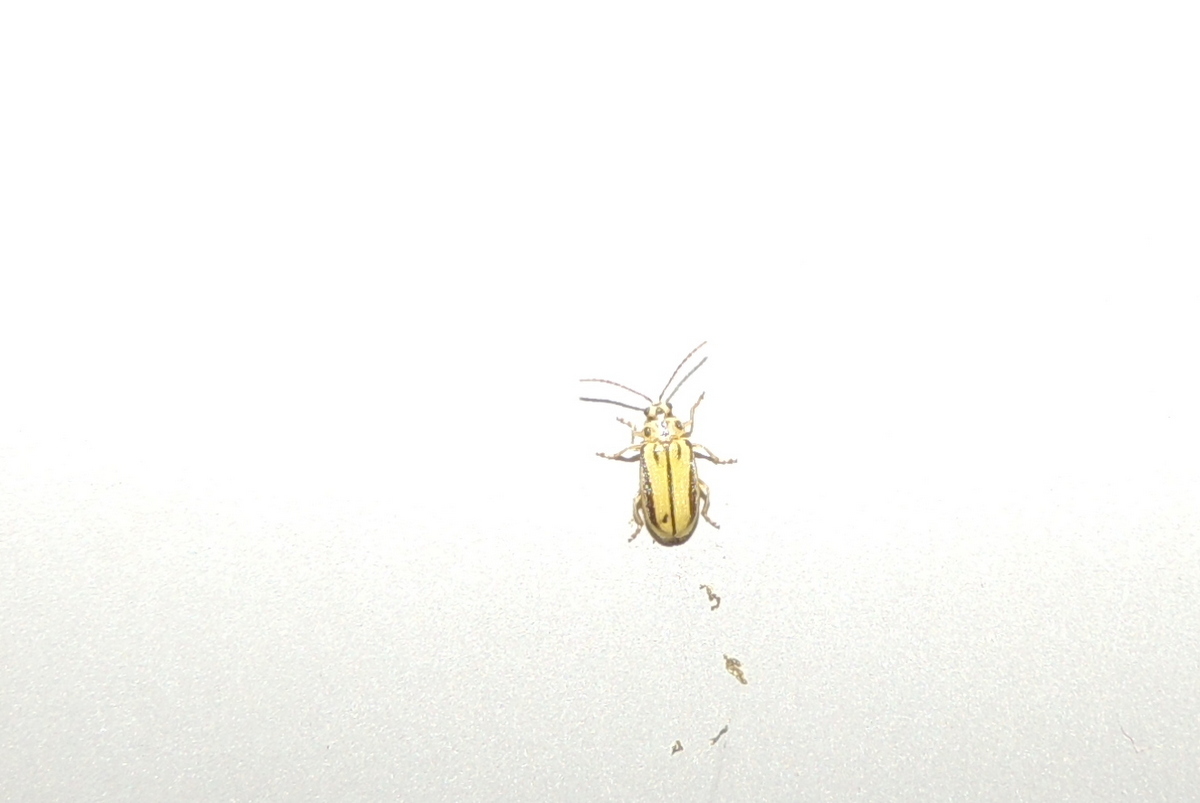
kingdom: Animalia
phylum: Arthropoda
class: Insecta
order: Coleoptera
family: Chrysomelidae
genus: Xanthogaleruca
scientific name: Xanthogaleruca luteola
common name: Elm leaf beetle
